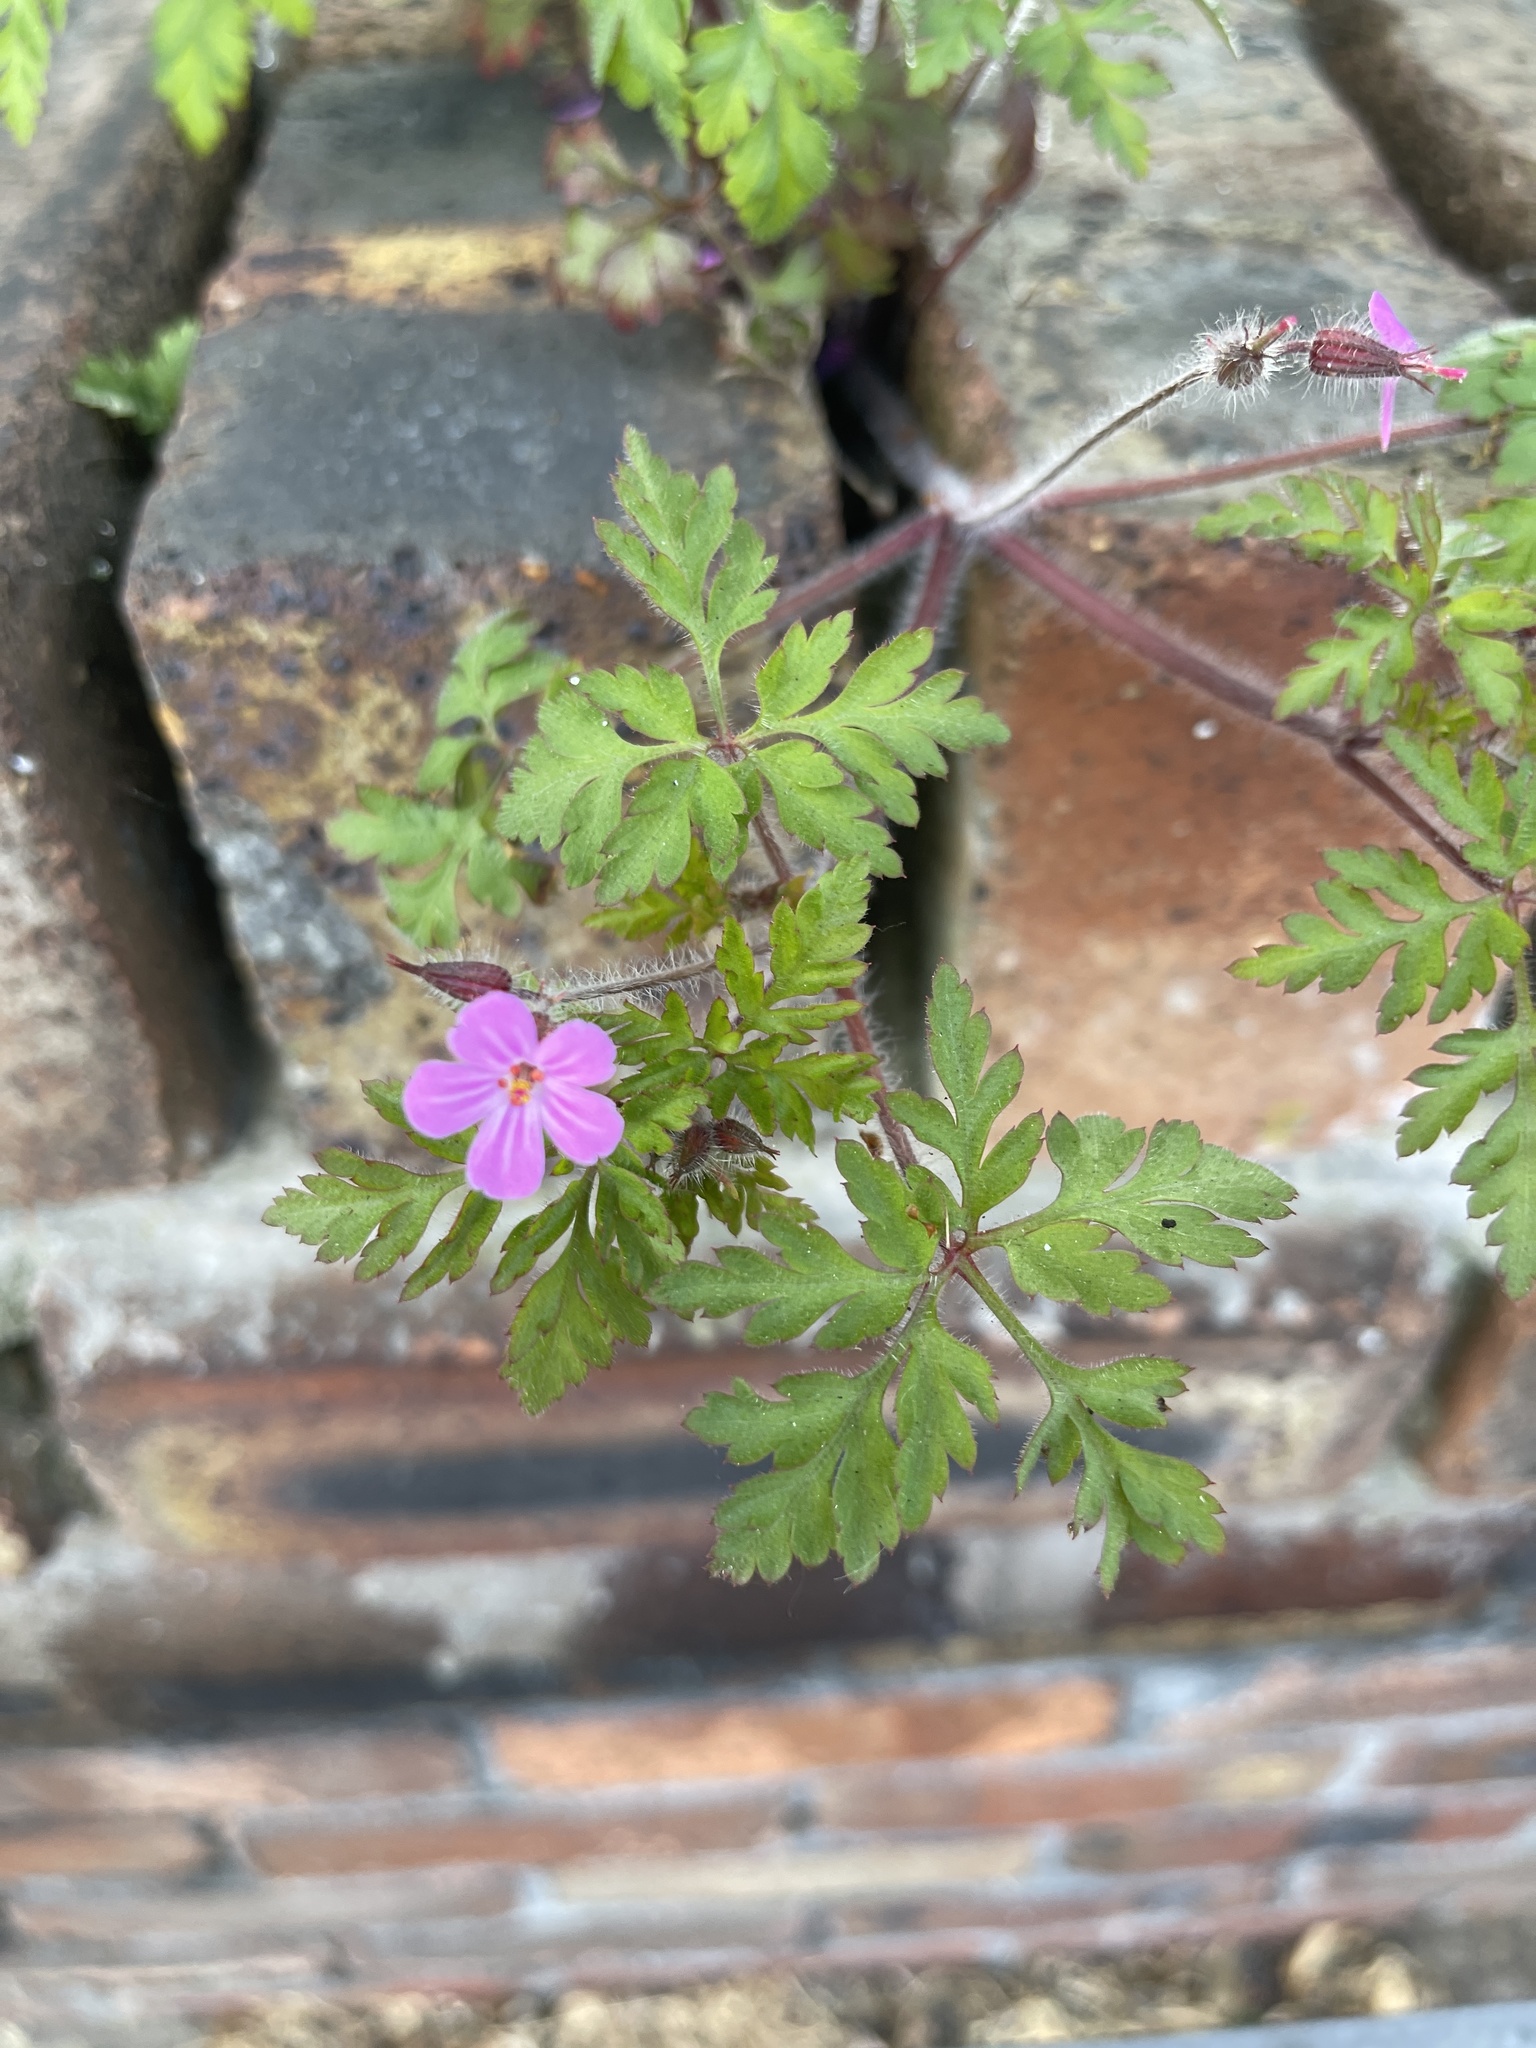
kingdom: Plantae
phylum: Tracheophyta
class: Magnoliopsida
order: Geraniales
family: Geraniaceae
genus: Geranium
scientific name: Geranium robertianum
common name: Herb-robert
